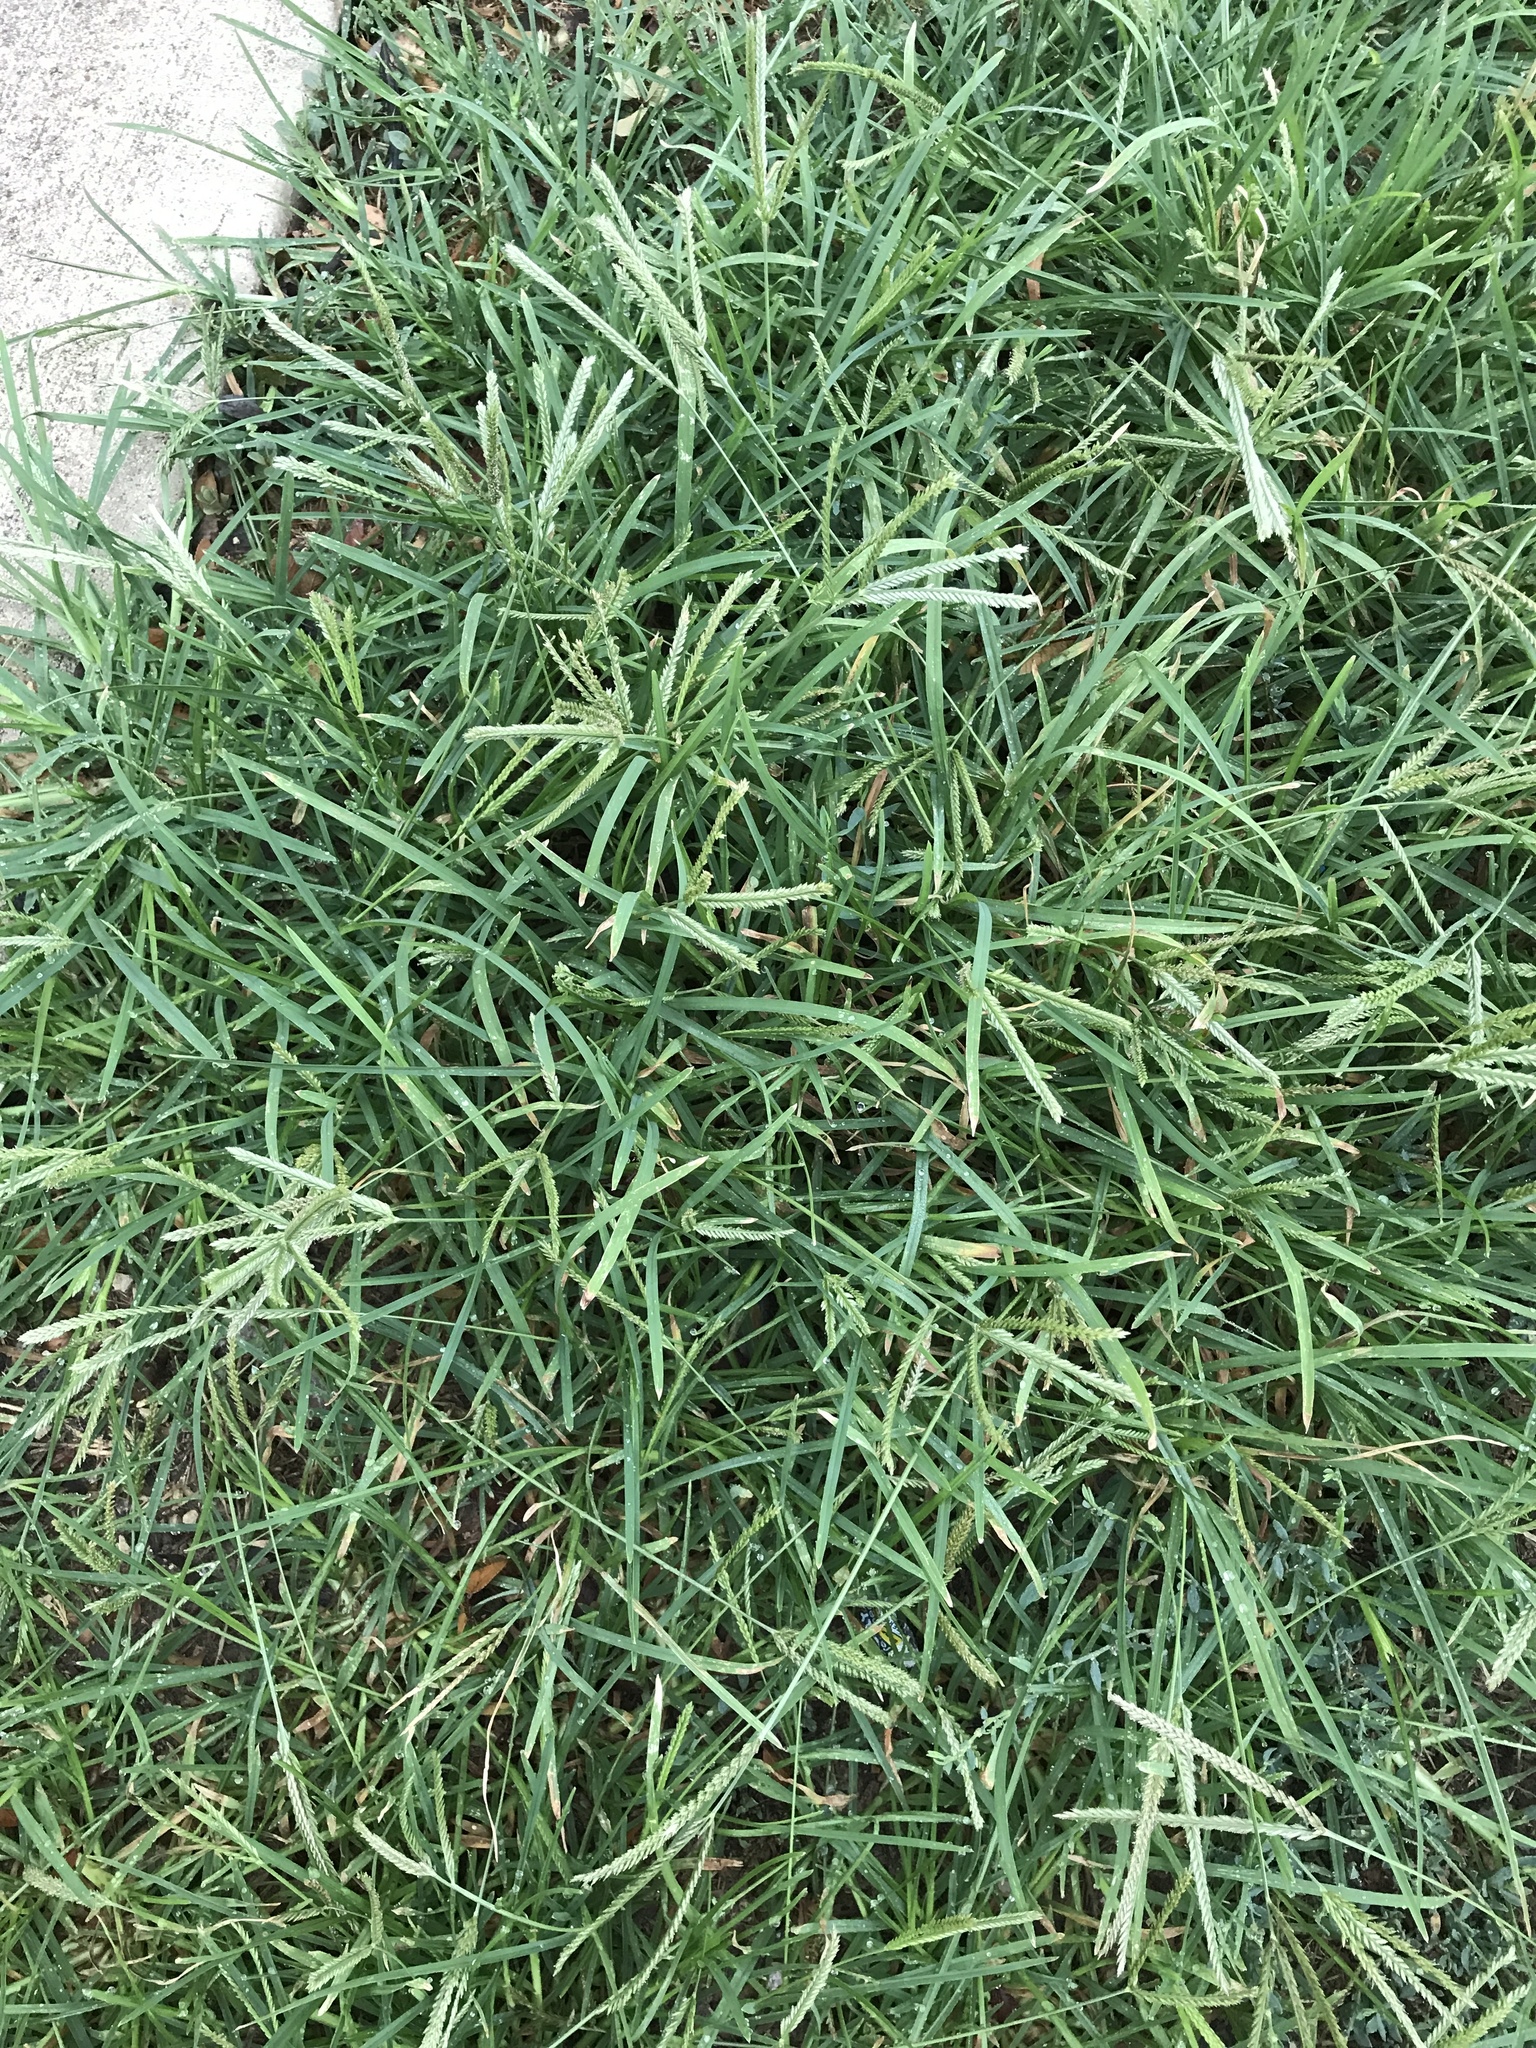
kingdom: Plantae
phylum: Tracheophyta
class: Liliopsida
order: Poales
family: Poaceae
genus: Eleusine
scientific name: Eleusine indica
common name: Yard-grass
